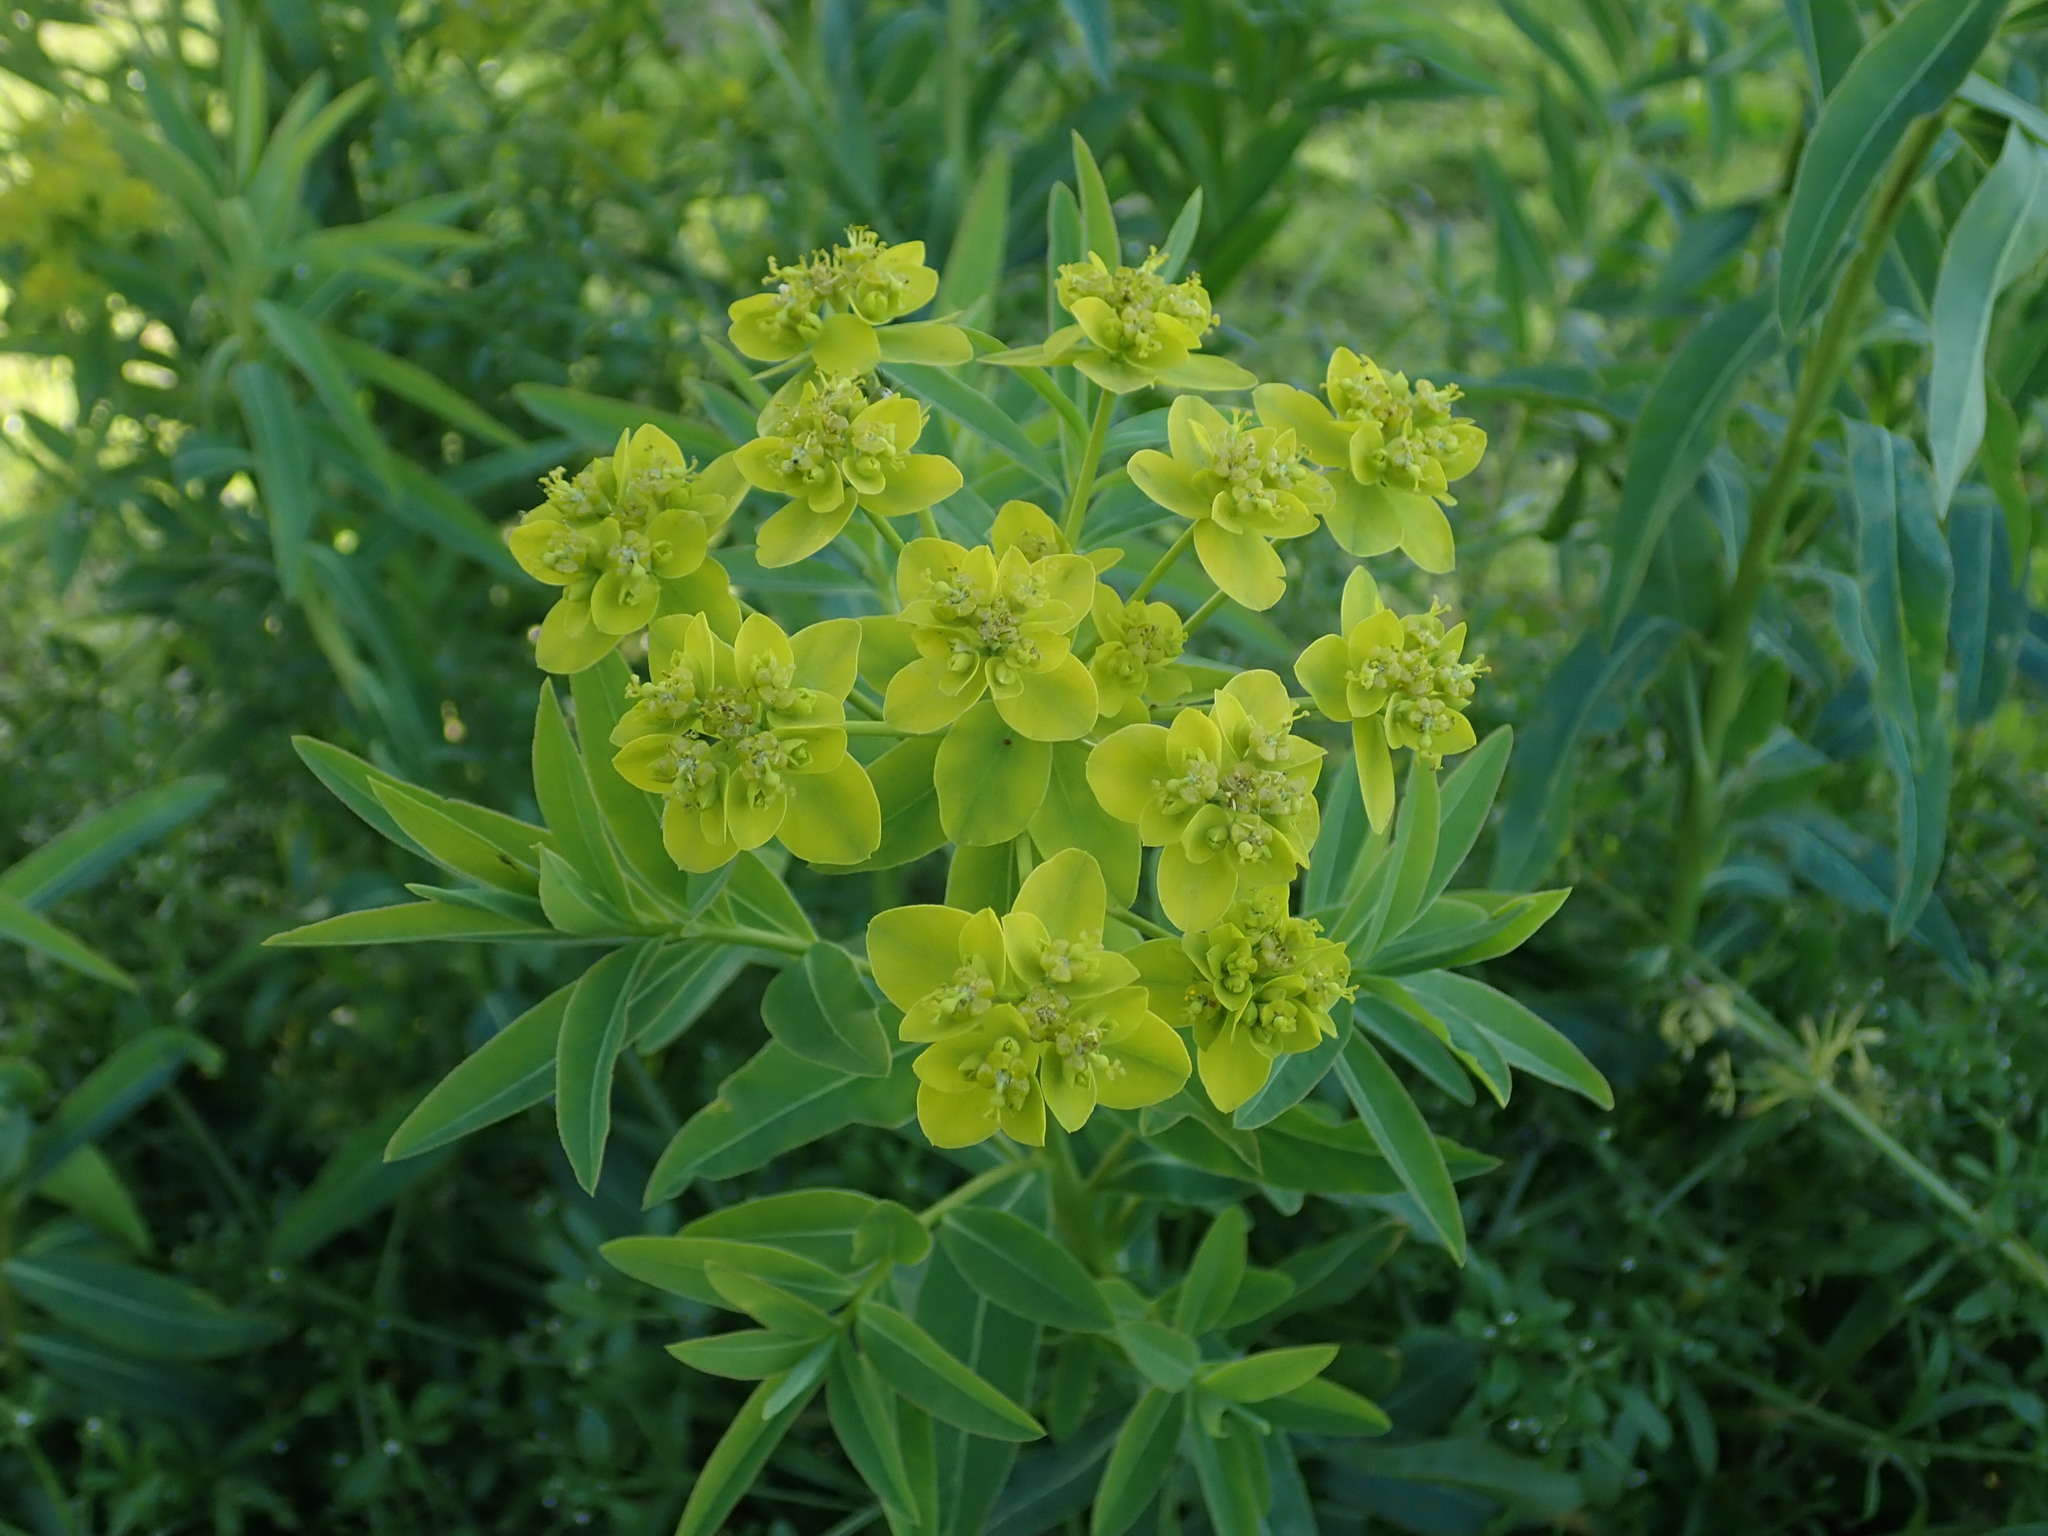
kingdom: Plantae
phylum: Tracheophyta
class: Magnoliopsida
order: Malpighiales
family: Euphorbiaceae
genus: Euphorbia
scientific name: Euphorbia oblongata
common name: Balkan spurge
